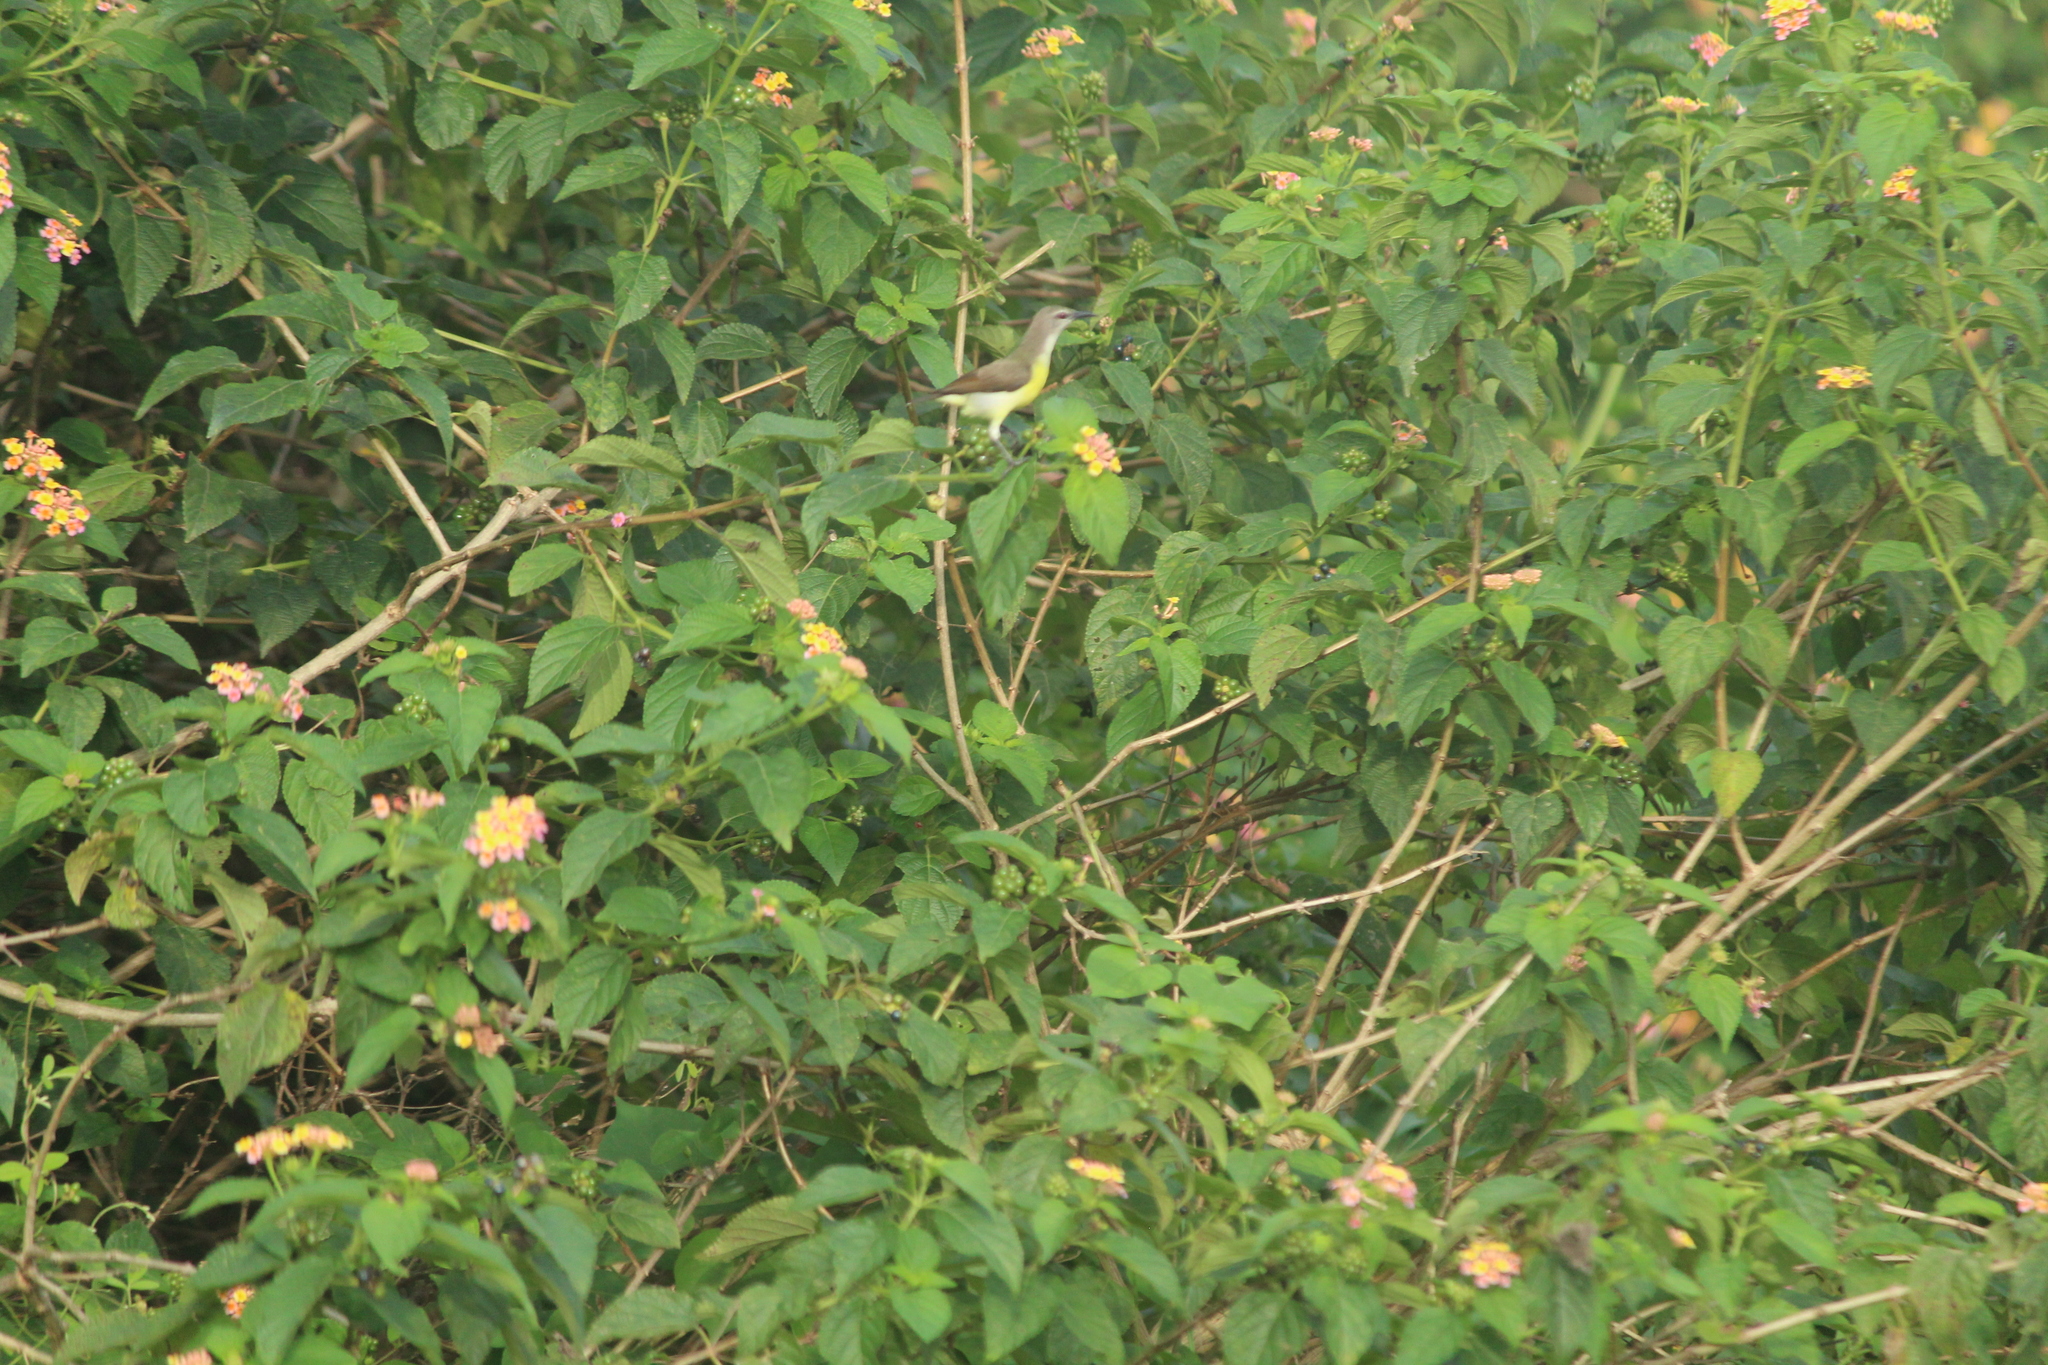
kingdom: Animalia
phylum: Chordata
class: Aves
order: Passeriformes
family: Nectariniidae
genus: Leptocoma
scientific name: Leptocoma zeylonica
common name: Purple-rumped sunbird
